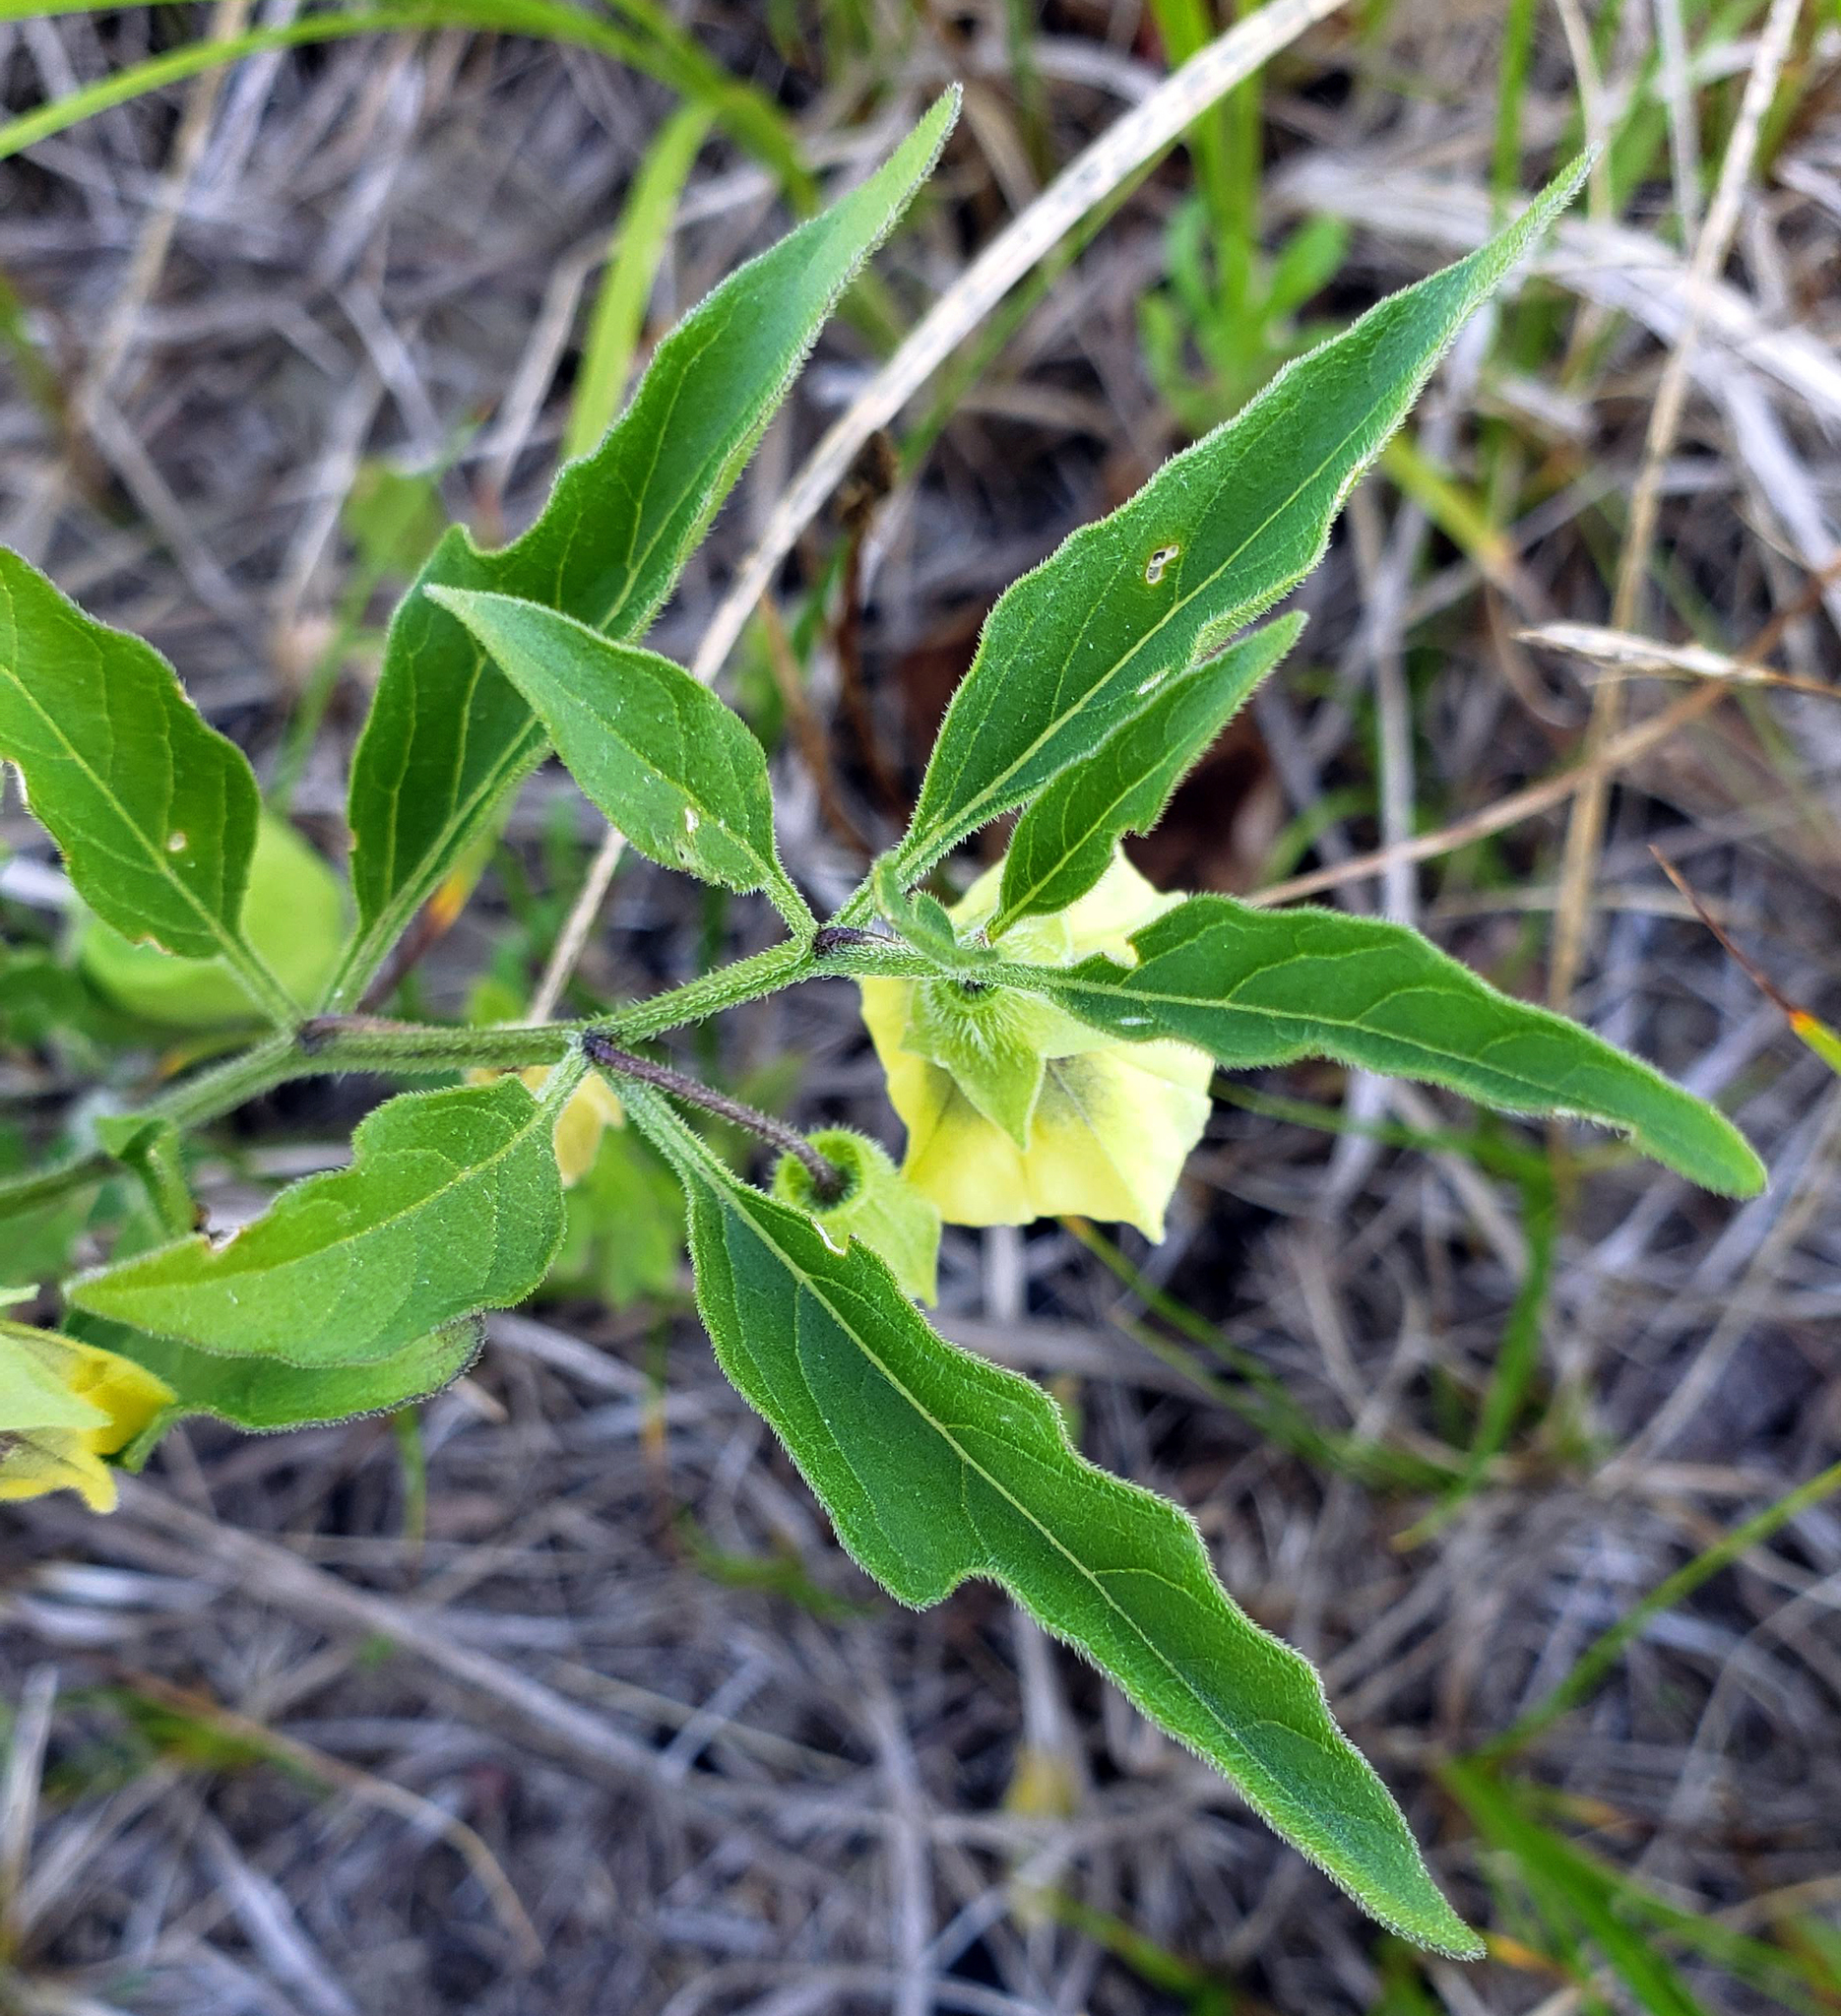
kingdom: Plantae
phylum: Tracheophyta
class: Magnoliopsida
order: Solanales
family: Solanaceae
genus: Physalis
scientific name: Physalis virginiana
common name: Virginia ground-cherry
